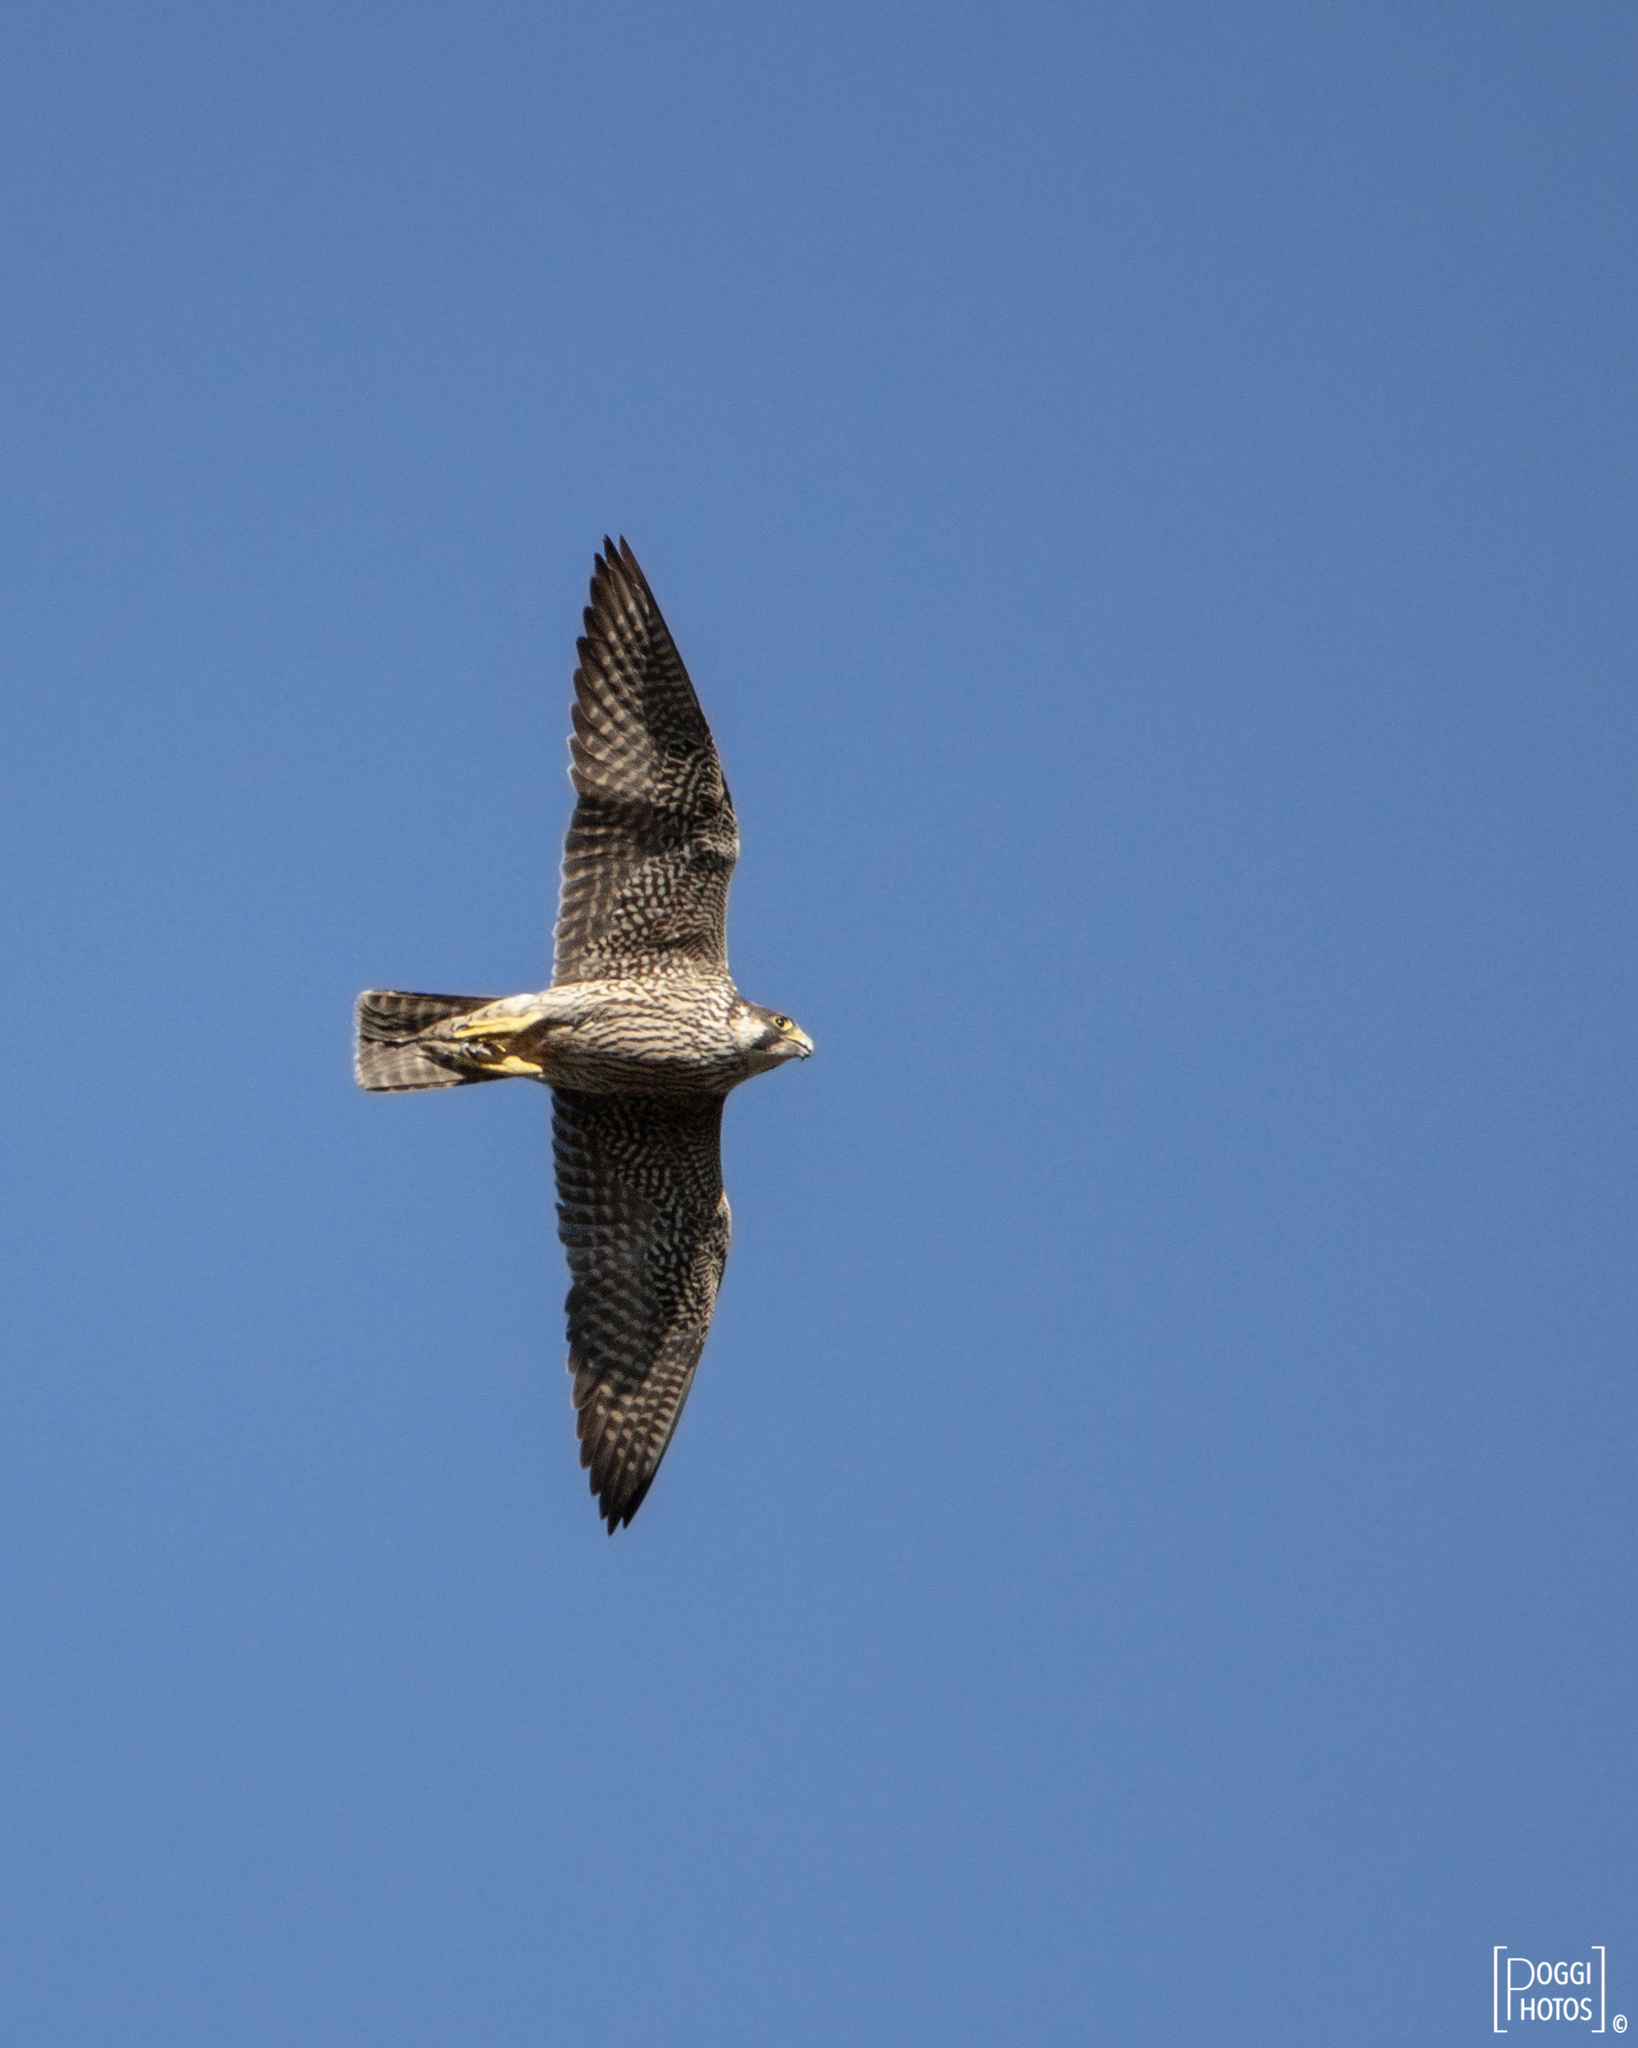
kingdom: Animalia
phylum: Chordata
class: Aves
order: Falconiformes
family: Falconidae
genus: Falco
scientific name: Falco peregrinus
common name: Peregrine falcon
